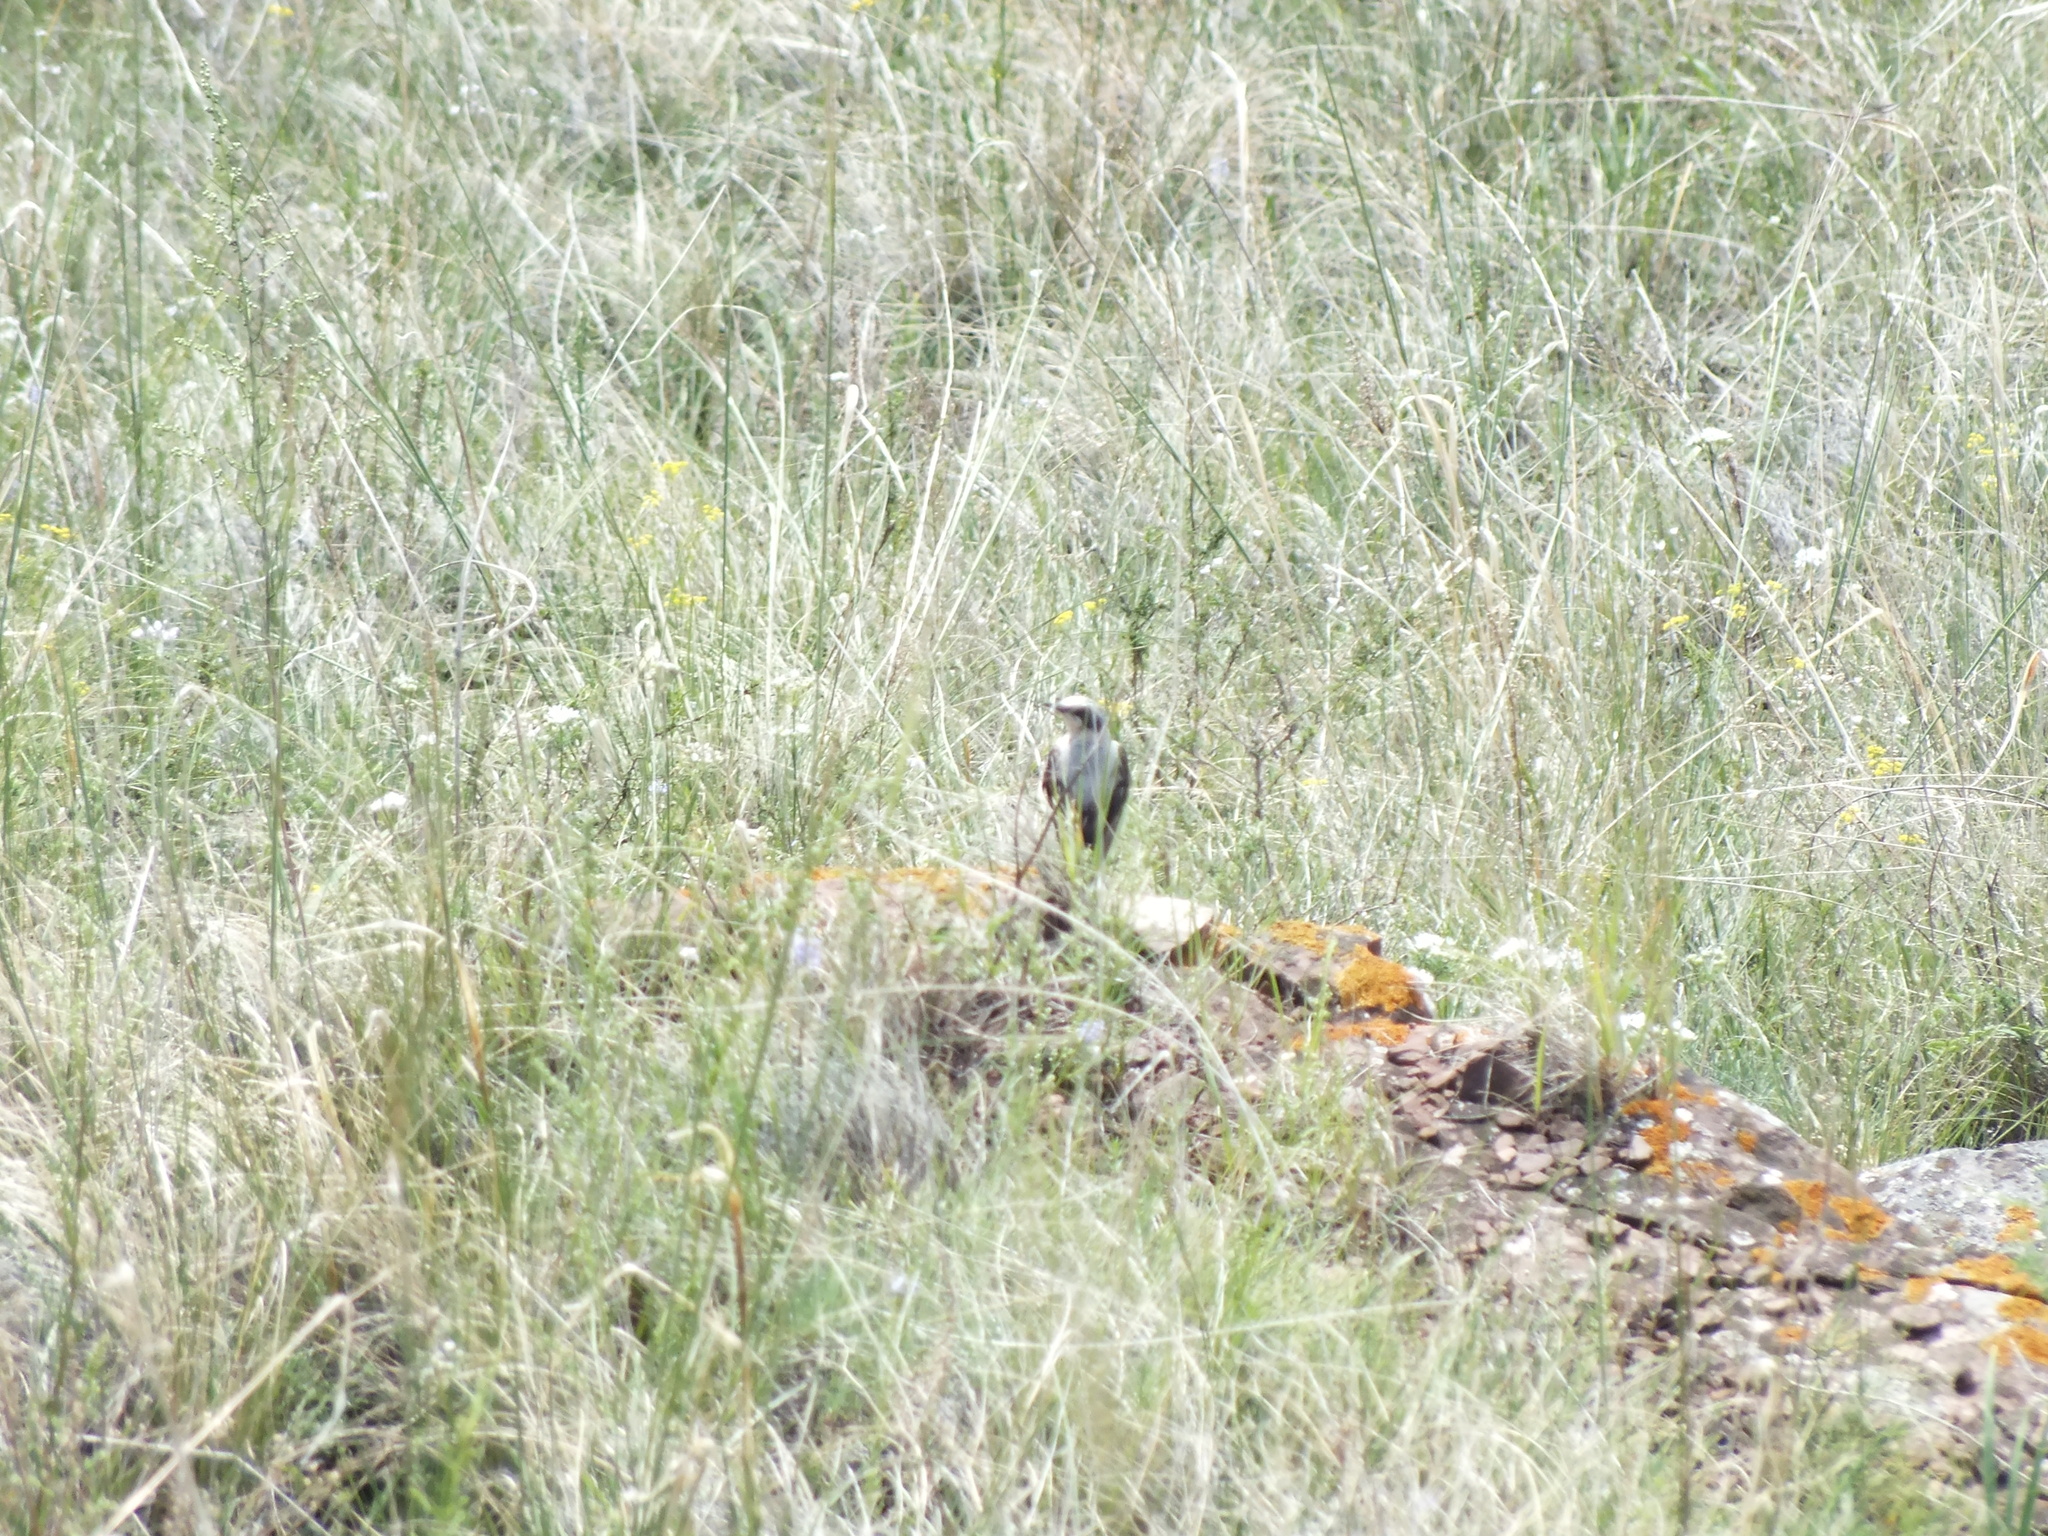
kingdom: Animalia
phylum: Chordata
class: Aves
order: Passeriformes
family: Muscicapidae
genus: Oenanthe
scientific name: Oenanthe oenanthe
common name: Northern wheatear
